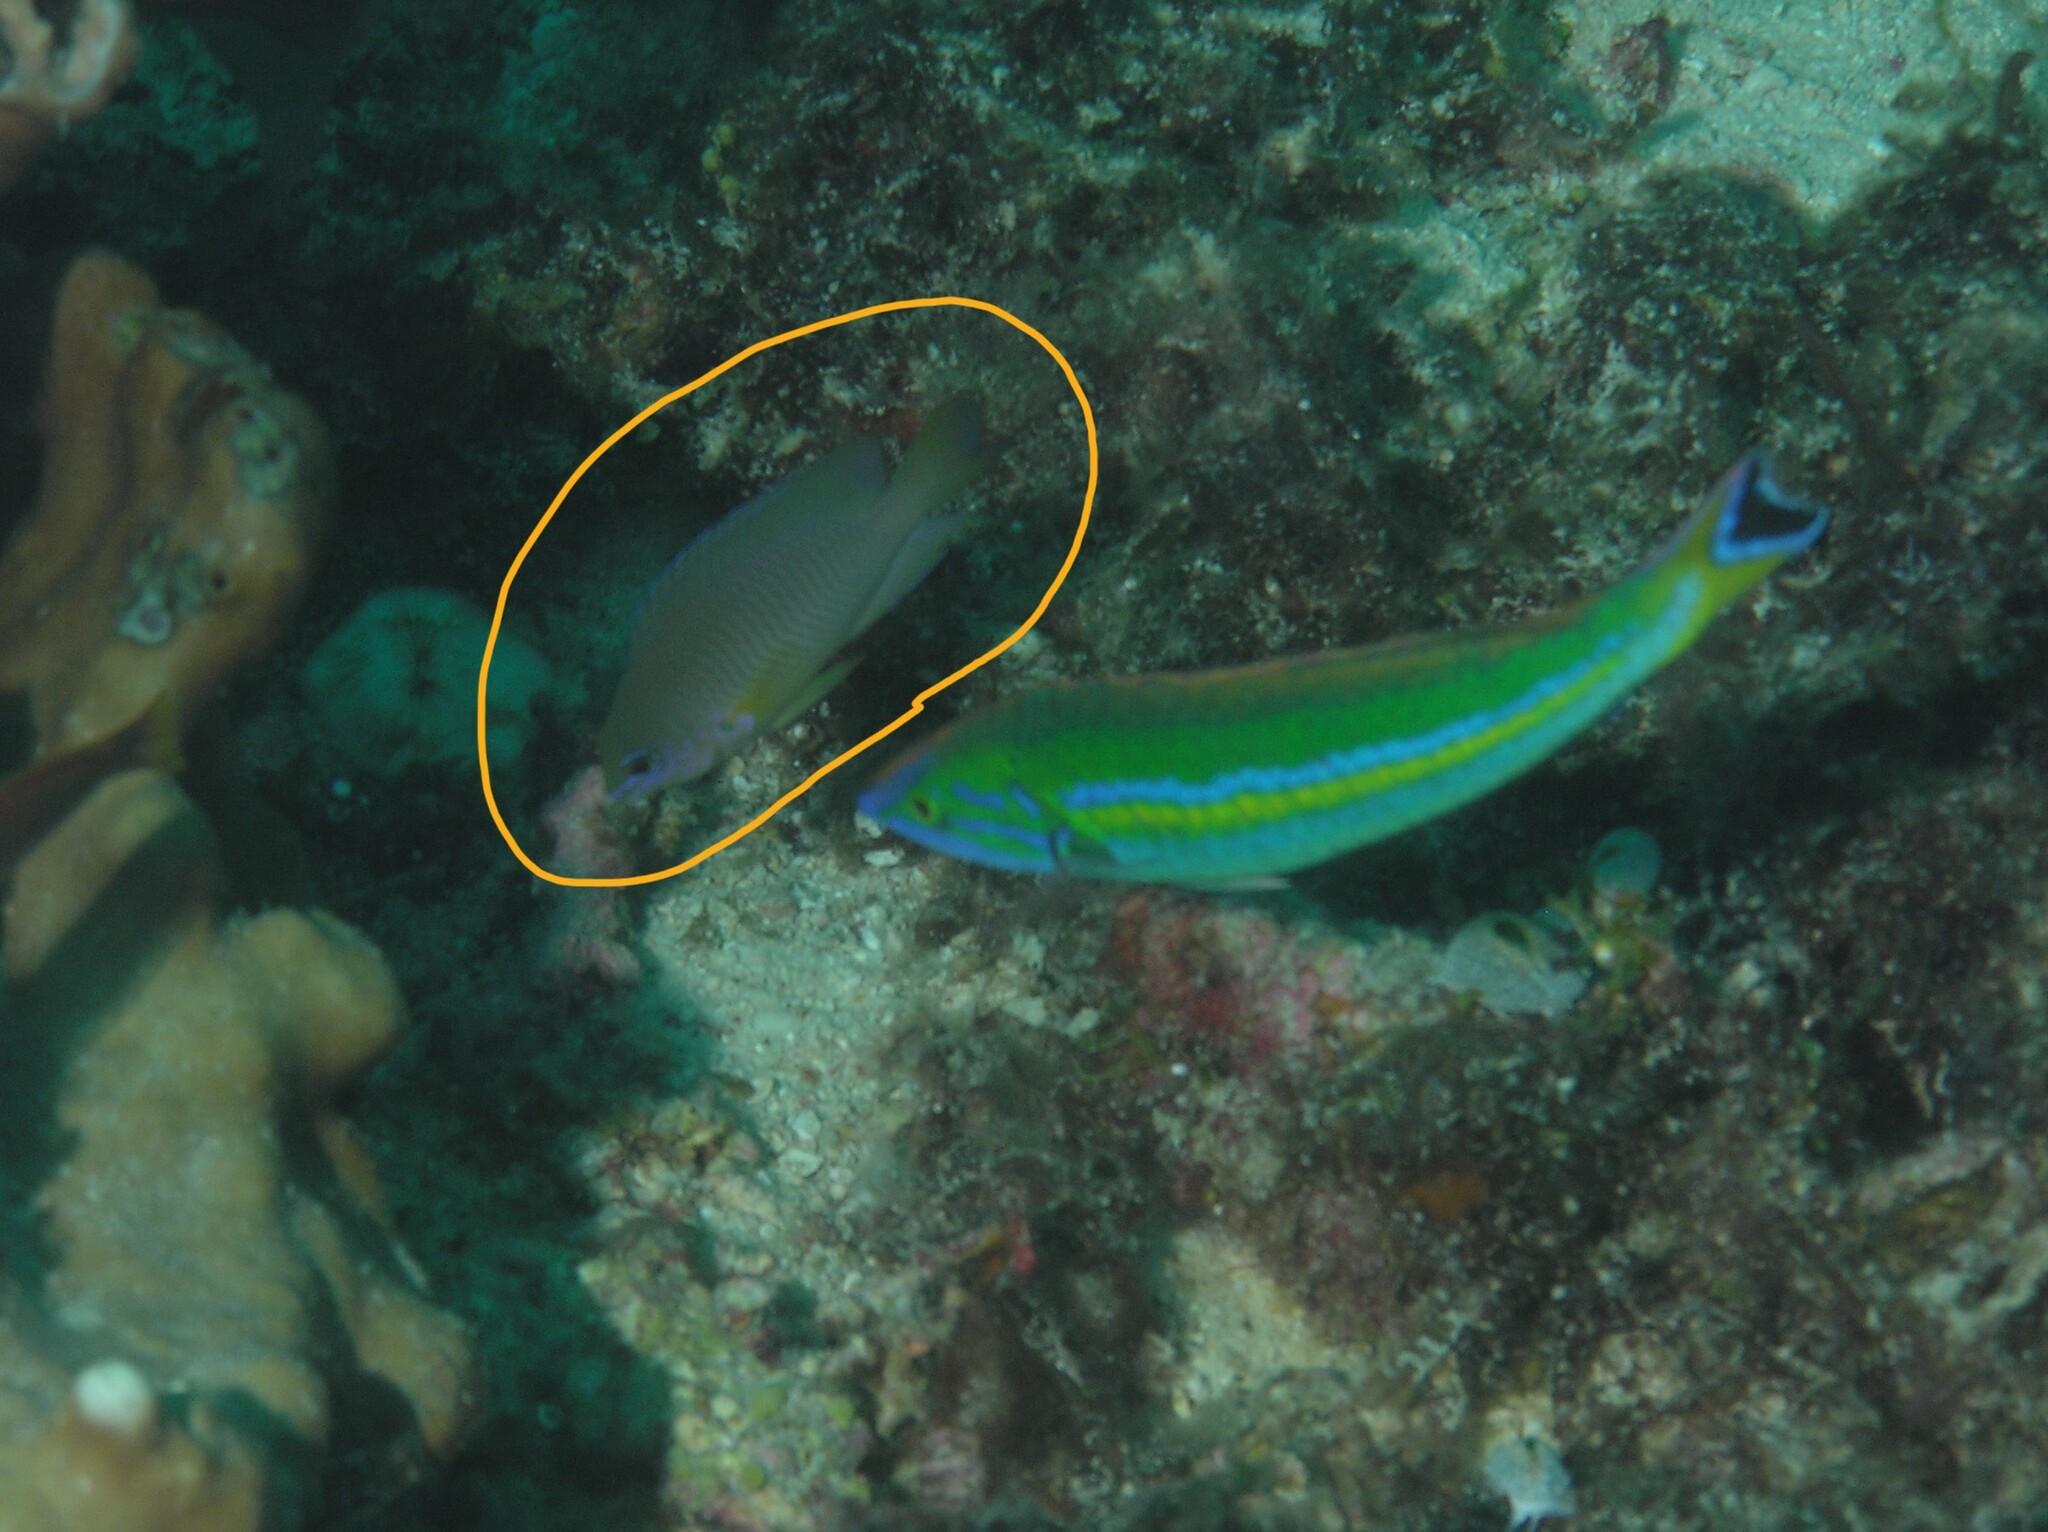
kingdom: Animalia
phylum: Chordata
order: Perciformes
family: Pomacentridae
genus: Pomacentrus
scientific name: Pomacentrus spilotoceps
